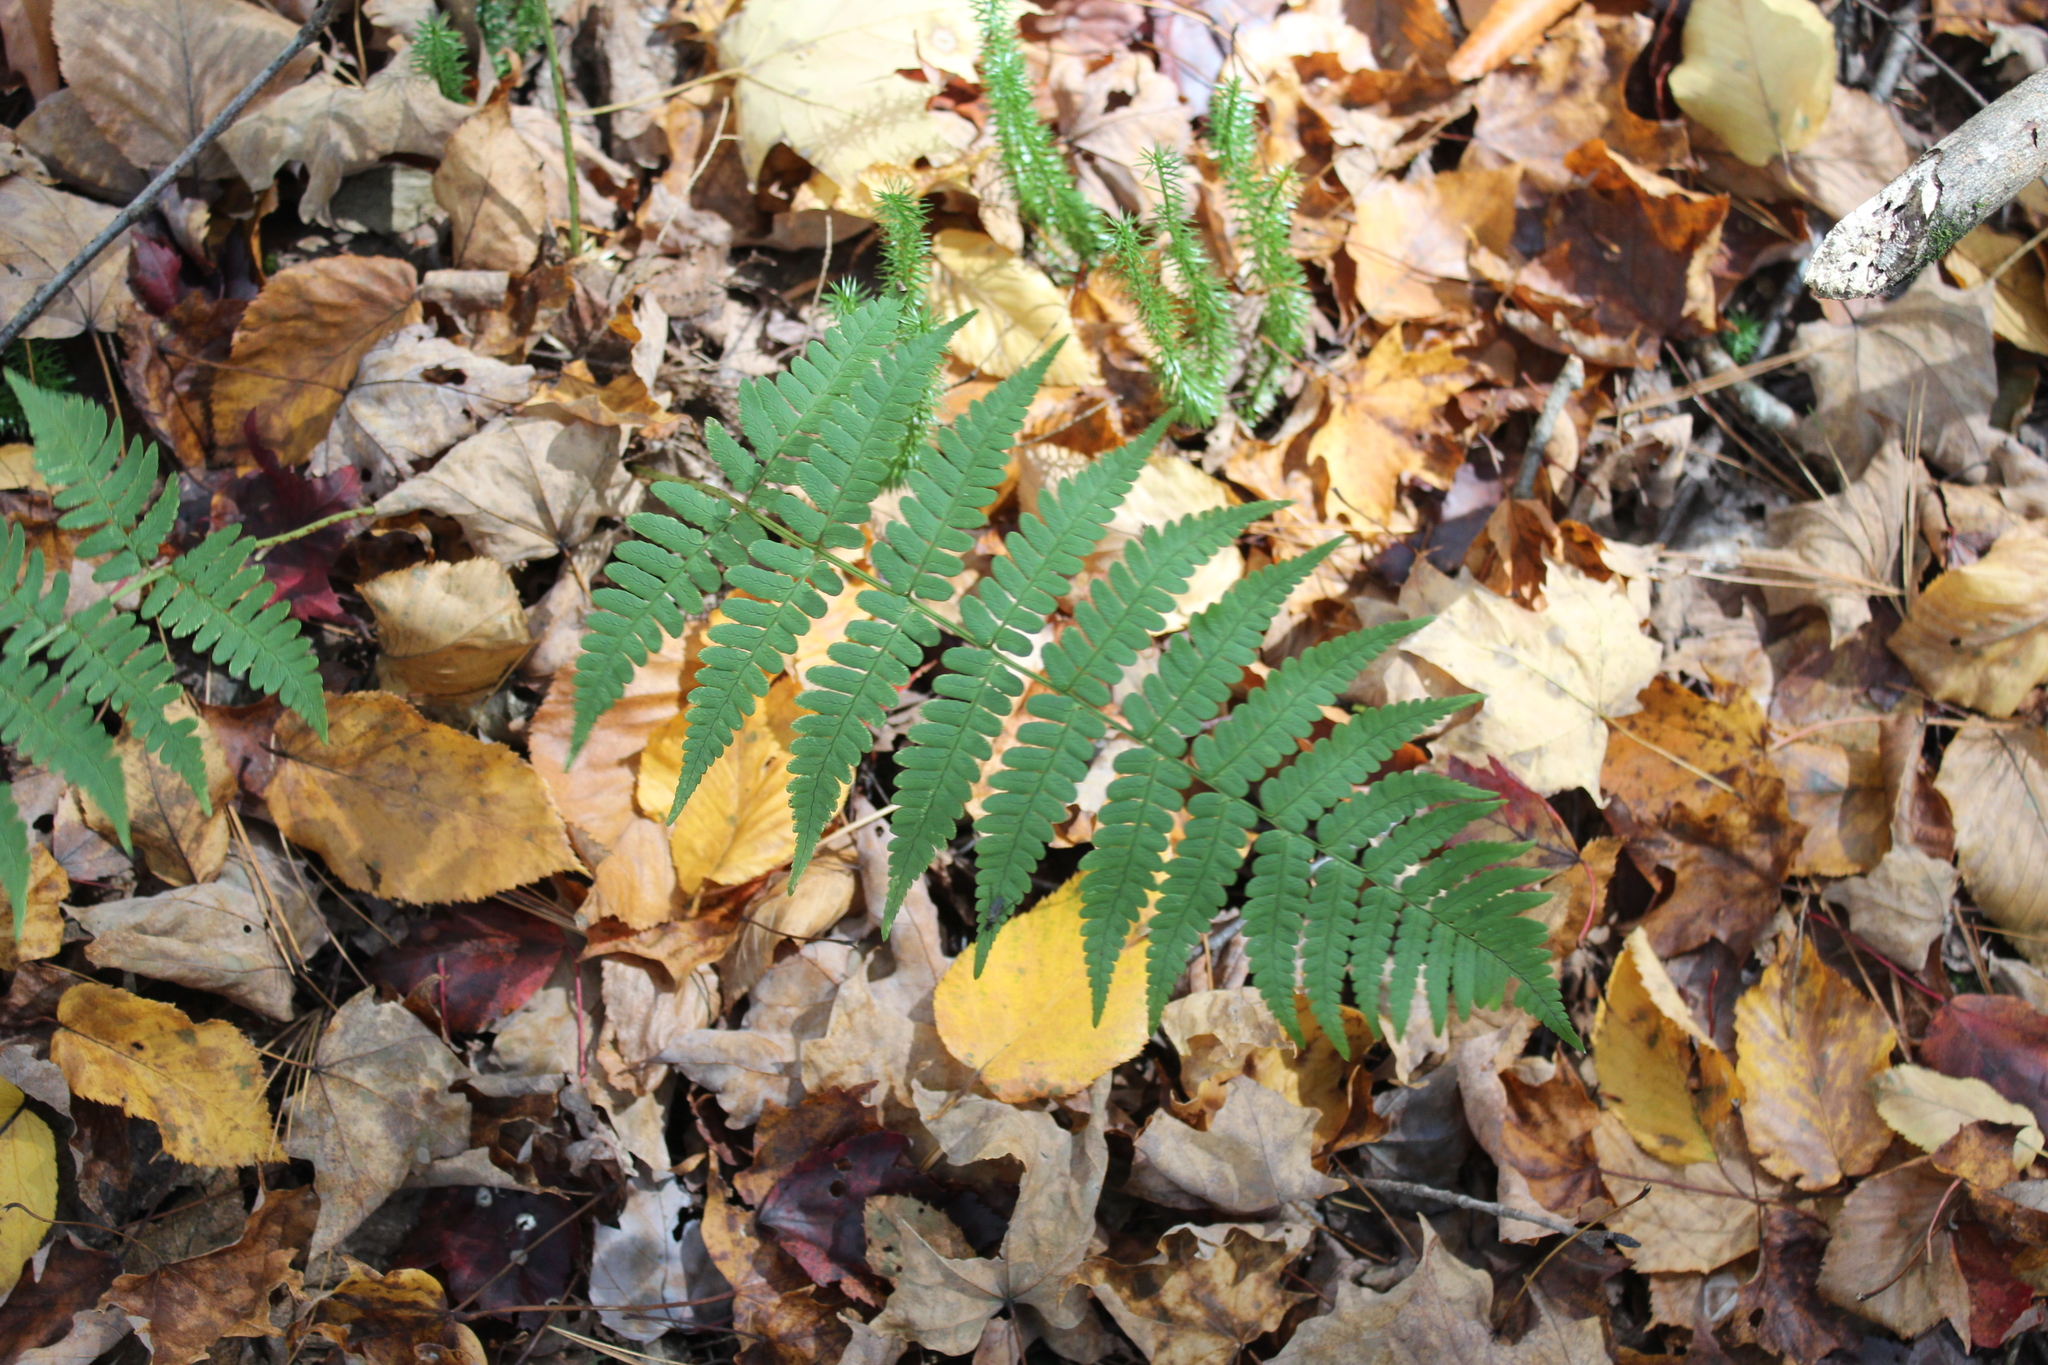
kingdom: Plantae
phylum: Tracheophyta
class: Polypodiopsida
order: Polypodiales
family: Dryopteridaceae
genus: Dryopteris
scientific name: Dryopteris marginalis
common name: Marginal wood fern
